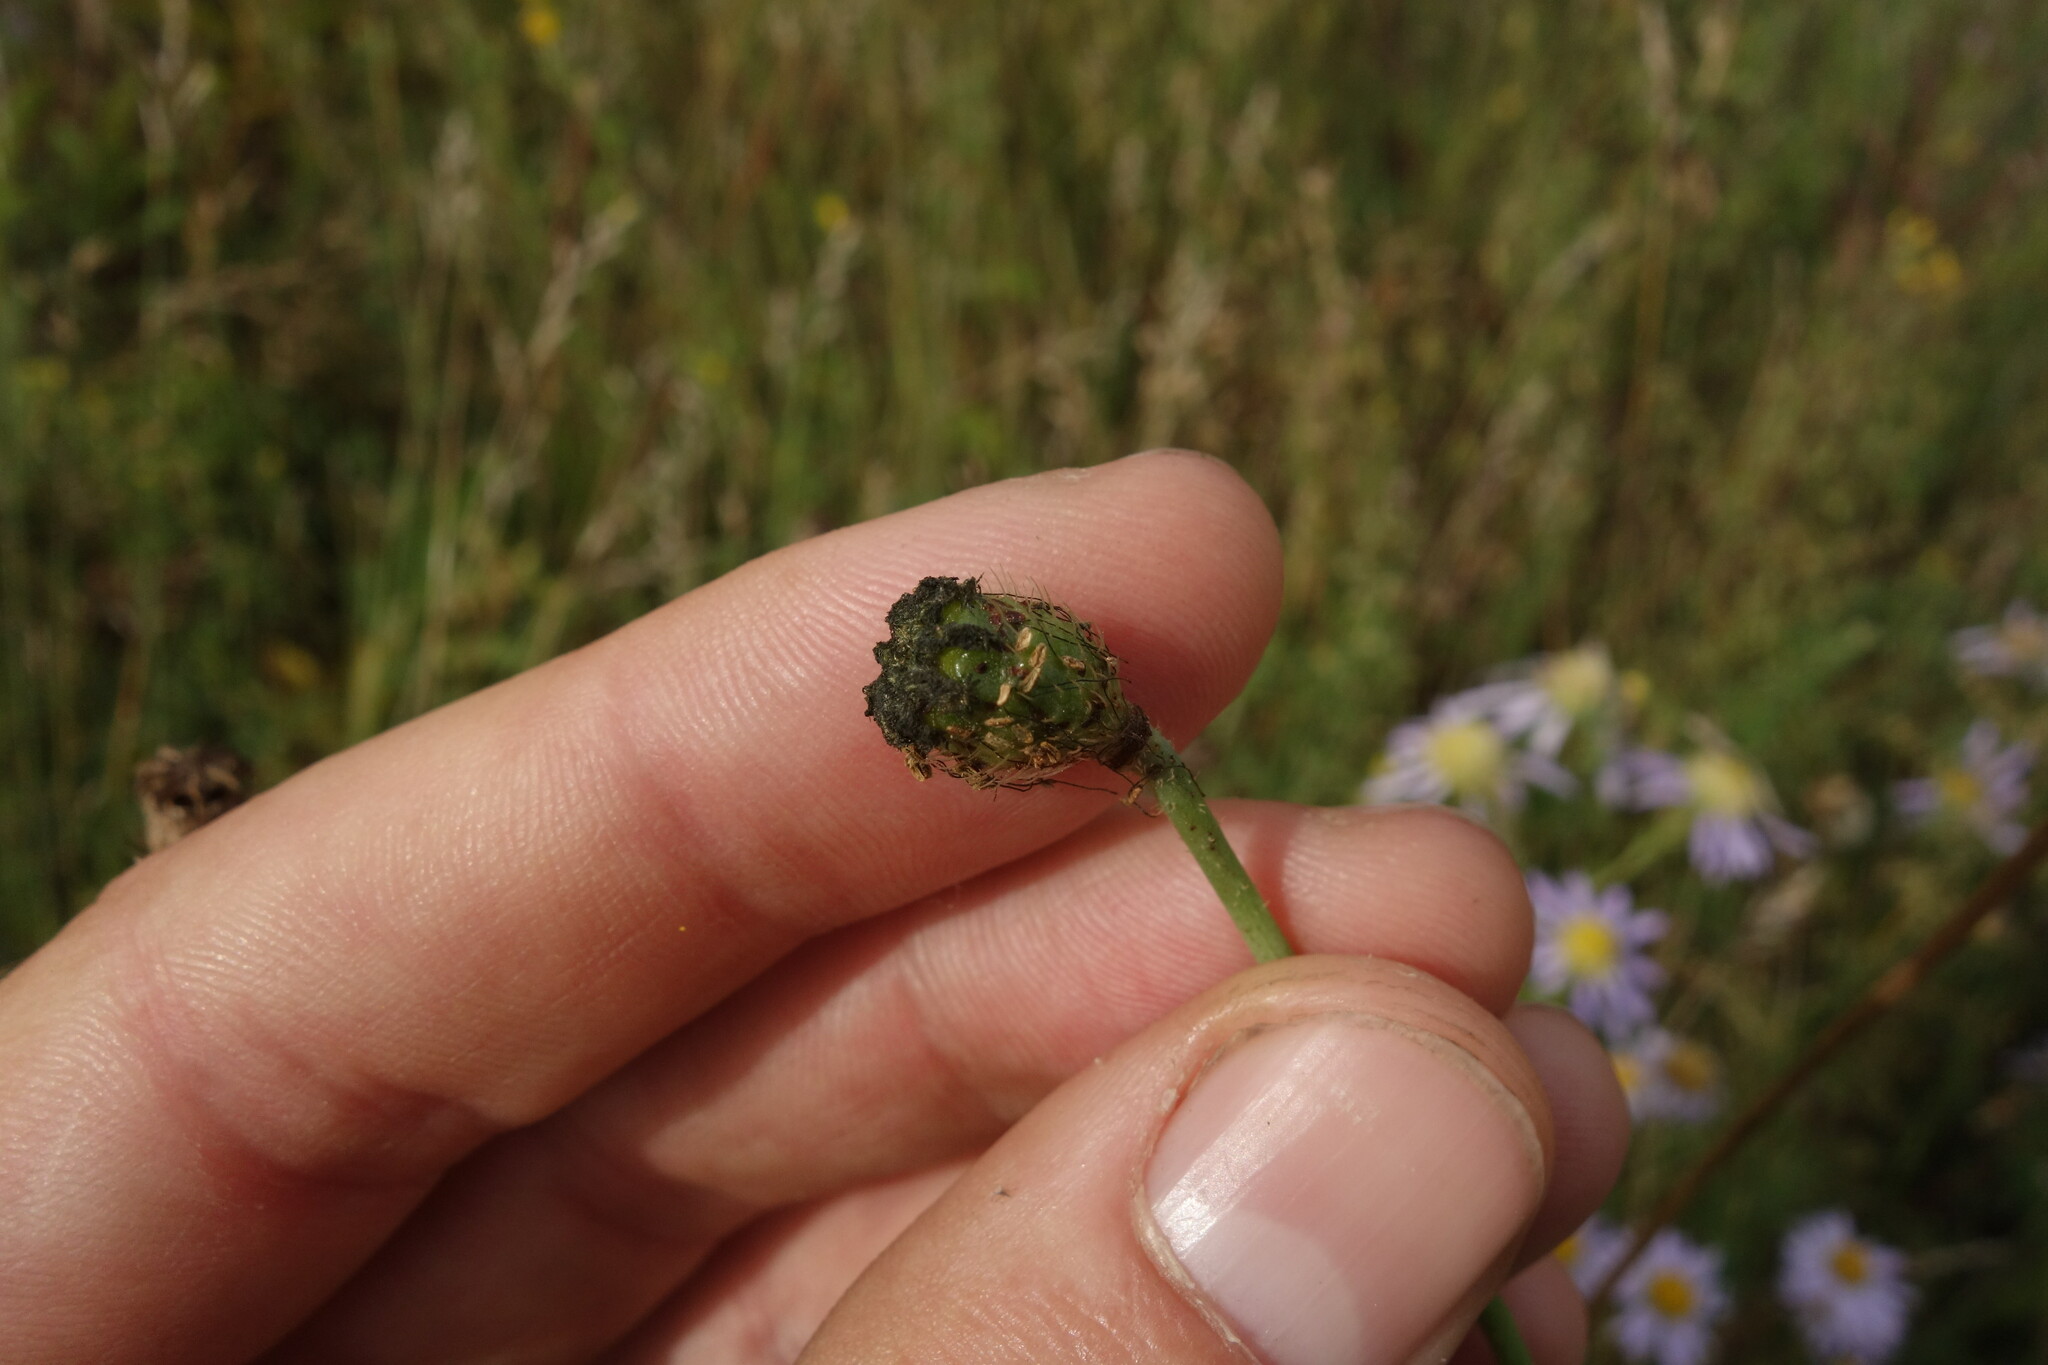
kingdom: Plantae
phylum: Tracheophyta
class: Magnoliopsida
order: Ranunculales
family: Papaveraceae
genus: Papaver
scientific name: Papaver nudicaule
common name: Arctic poppy
